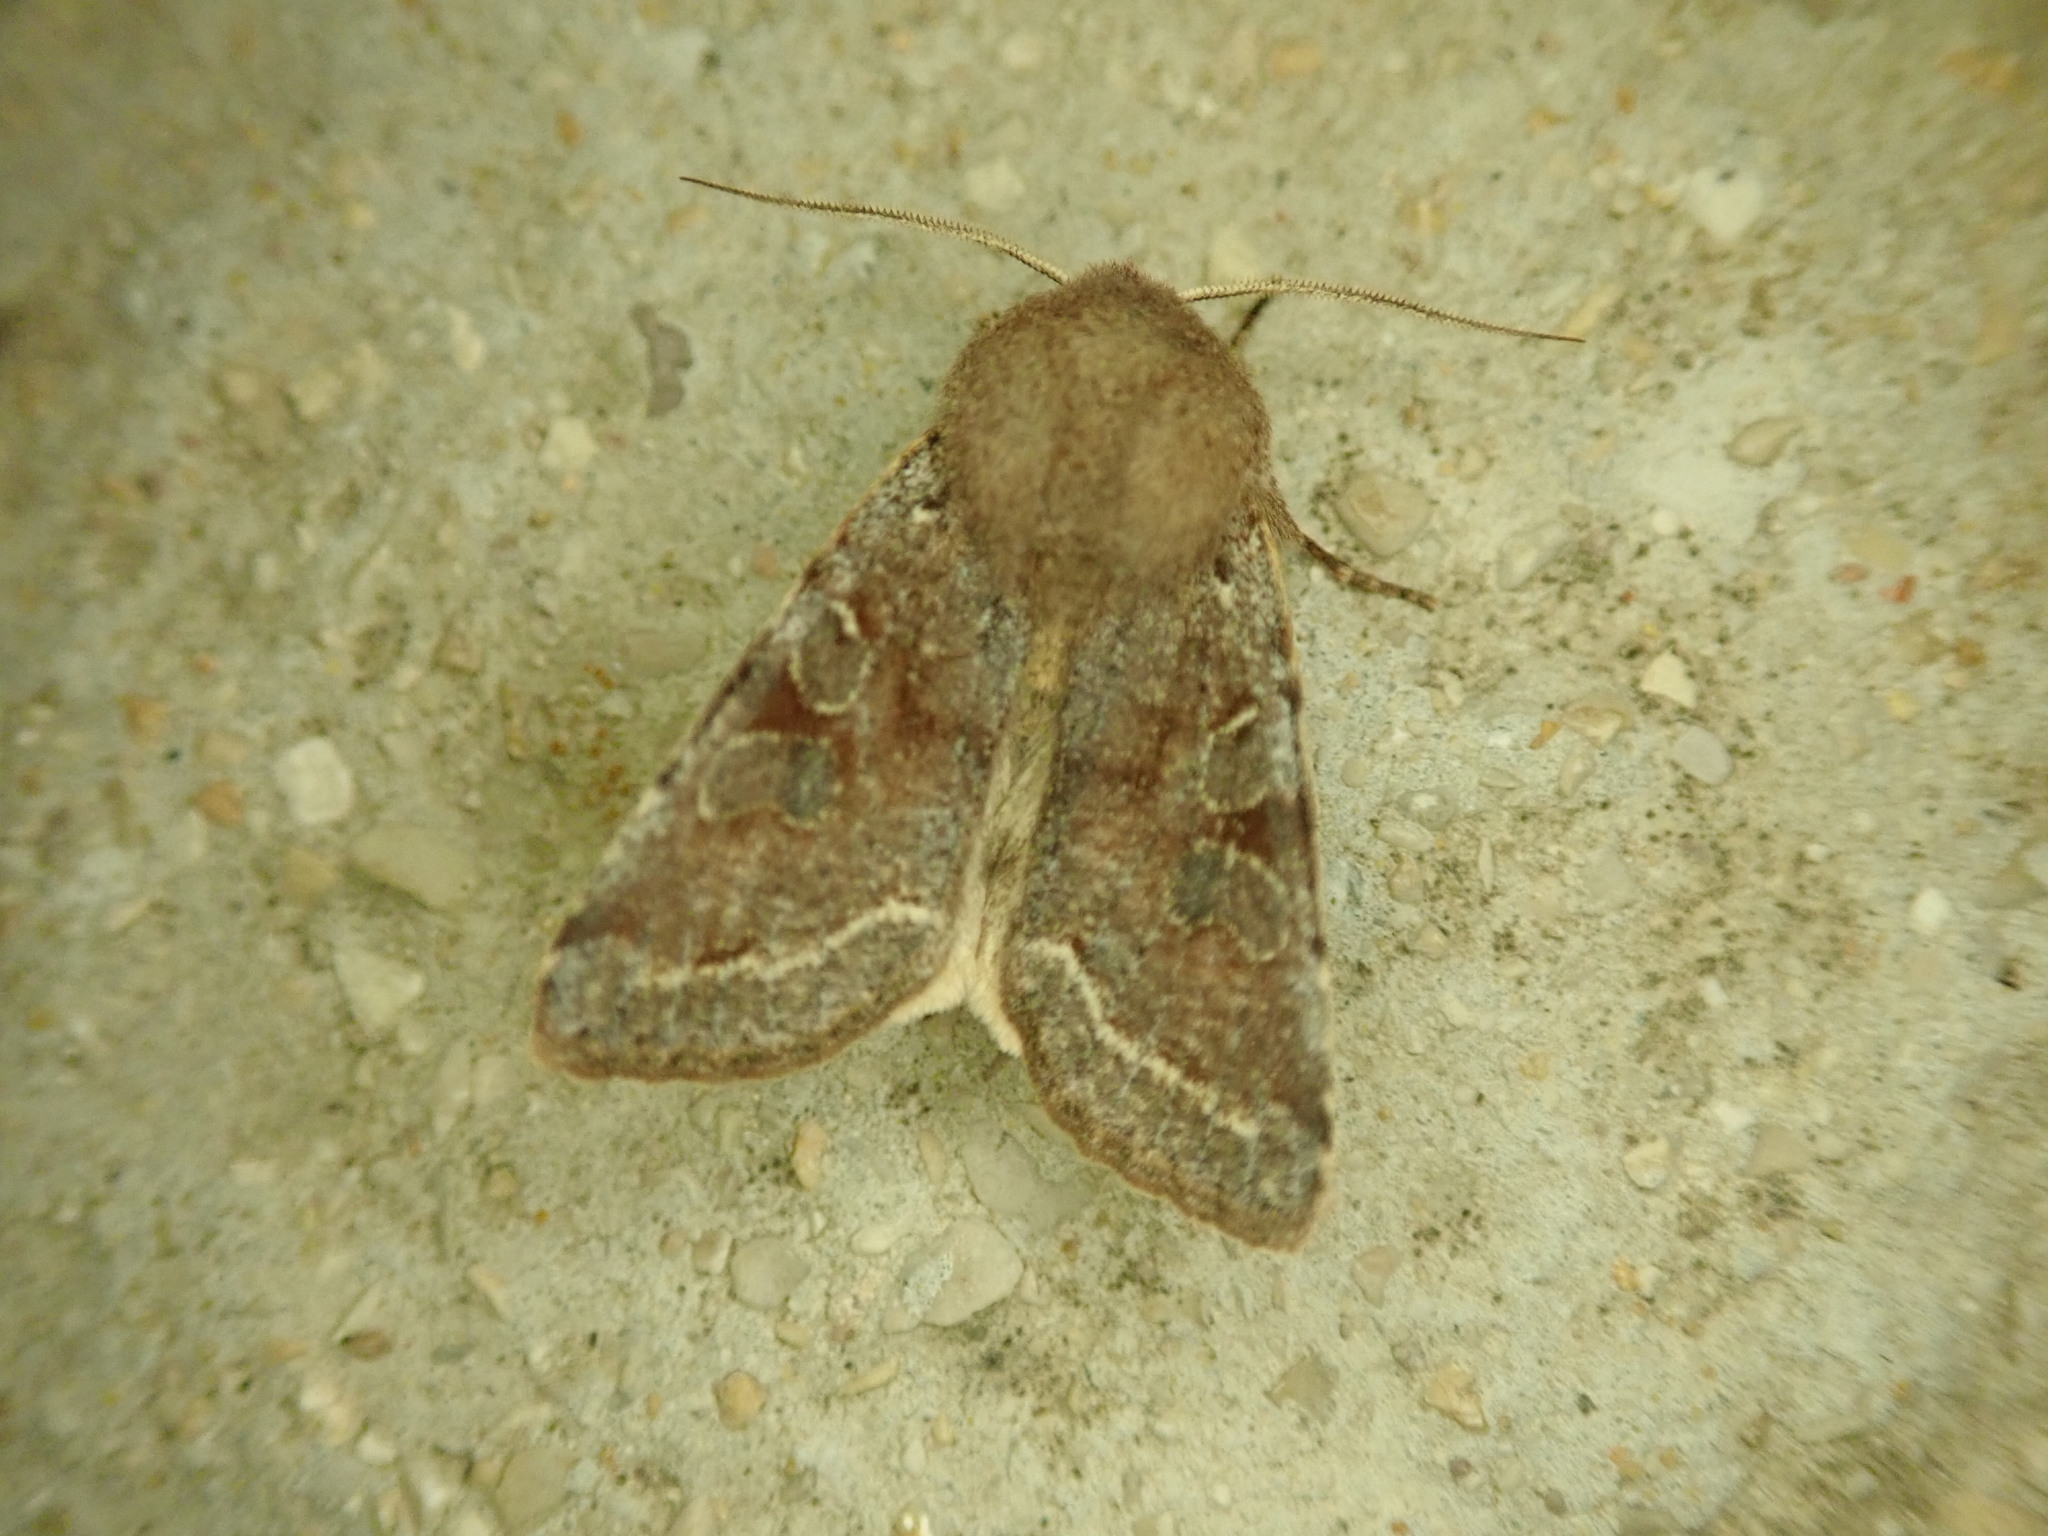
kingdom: Animalia
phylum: Arthropoda
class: Insecta
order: Lepidoptera
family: Noctuidae
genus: Orthosia
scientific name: Orthosia incerta
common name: Clouded drab
